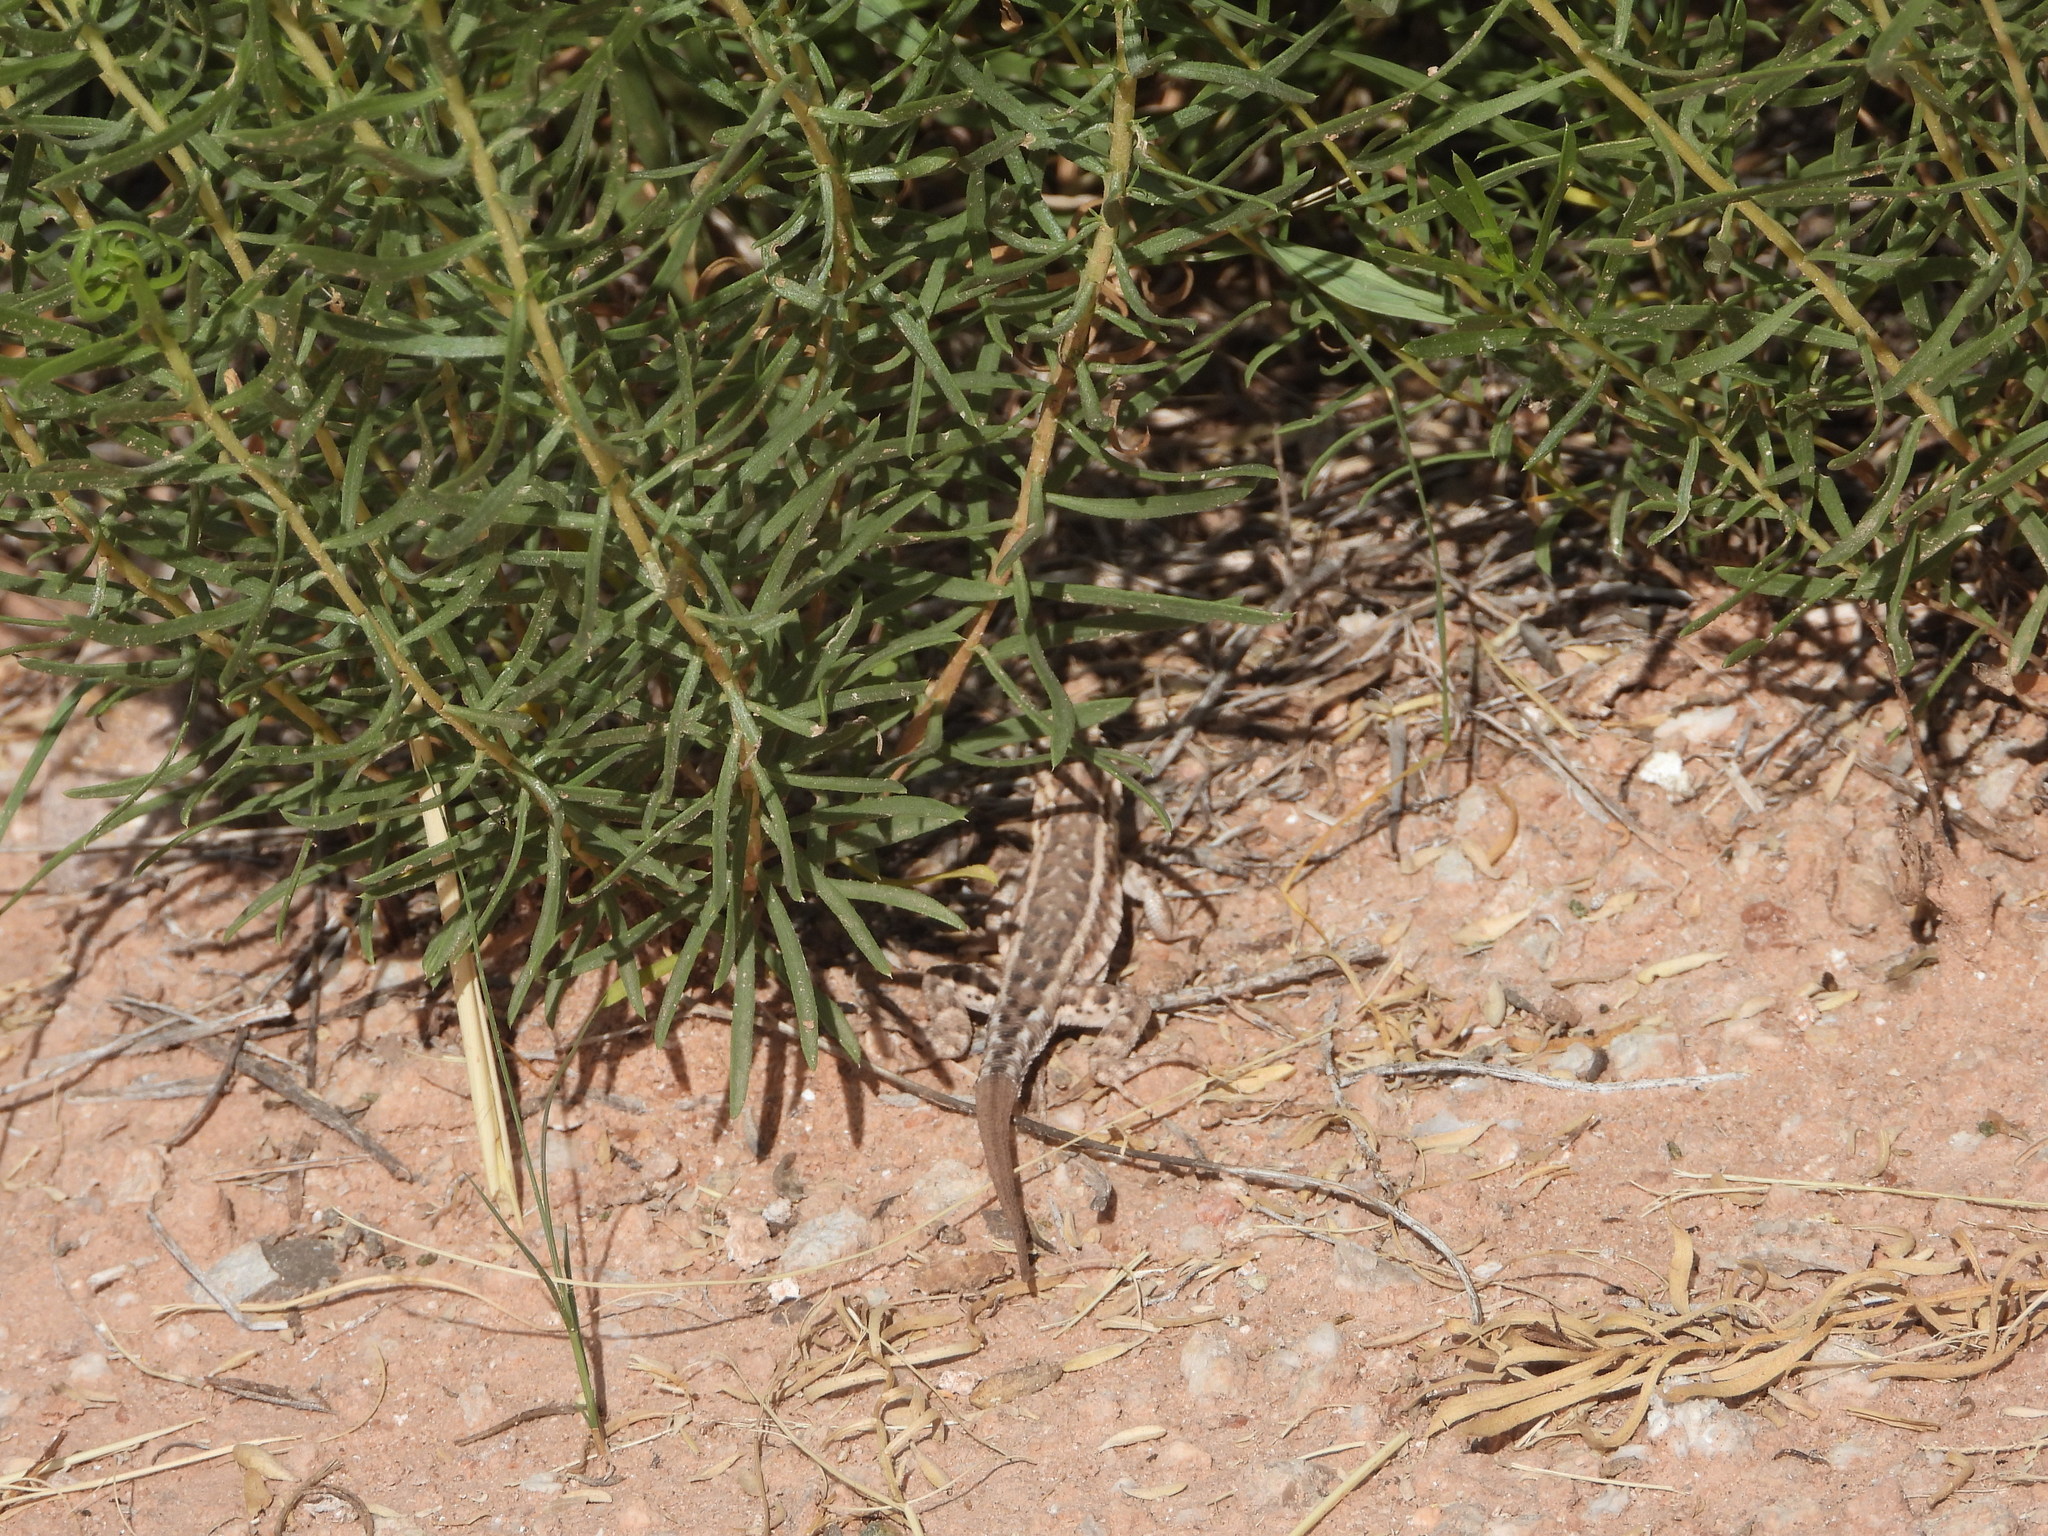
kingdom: Animalia
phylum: Chordata
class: Squamata
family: Phrynosomatidae
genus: Uta
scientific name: Uta stansburiana
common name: Side-blotched lizard
